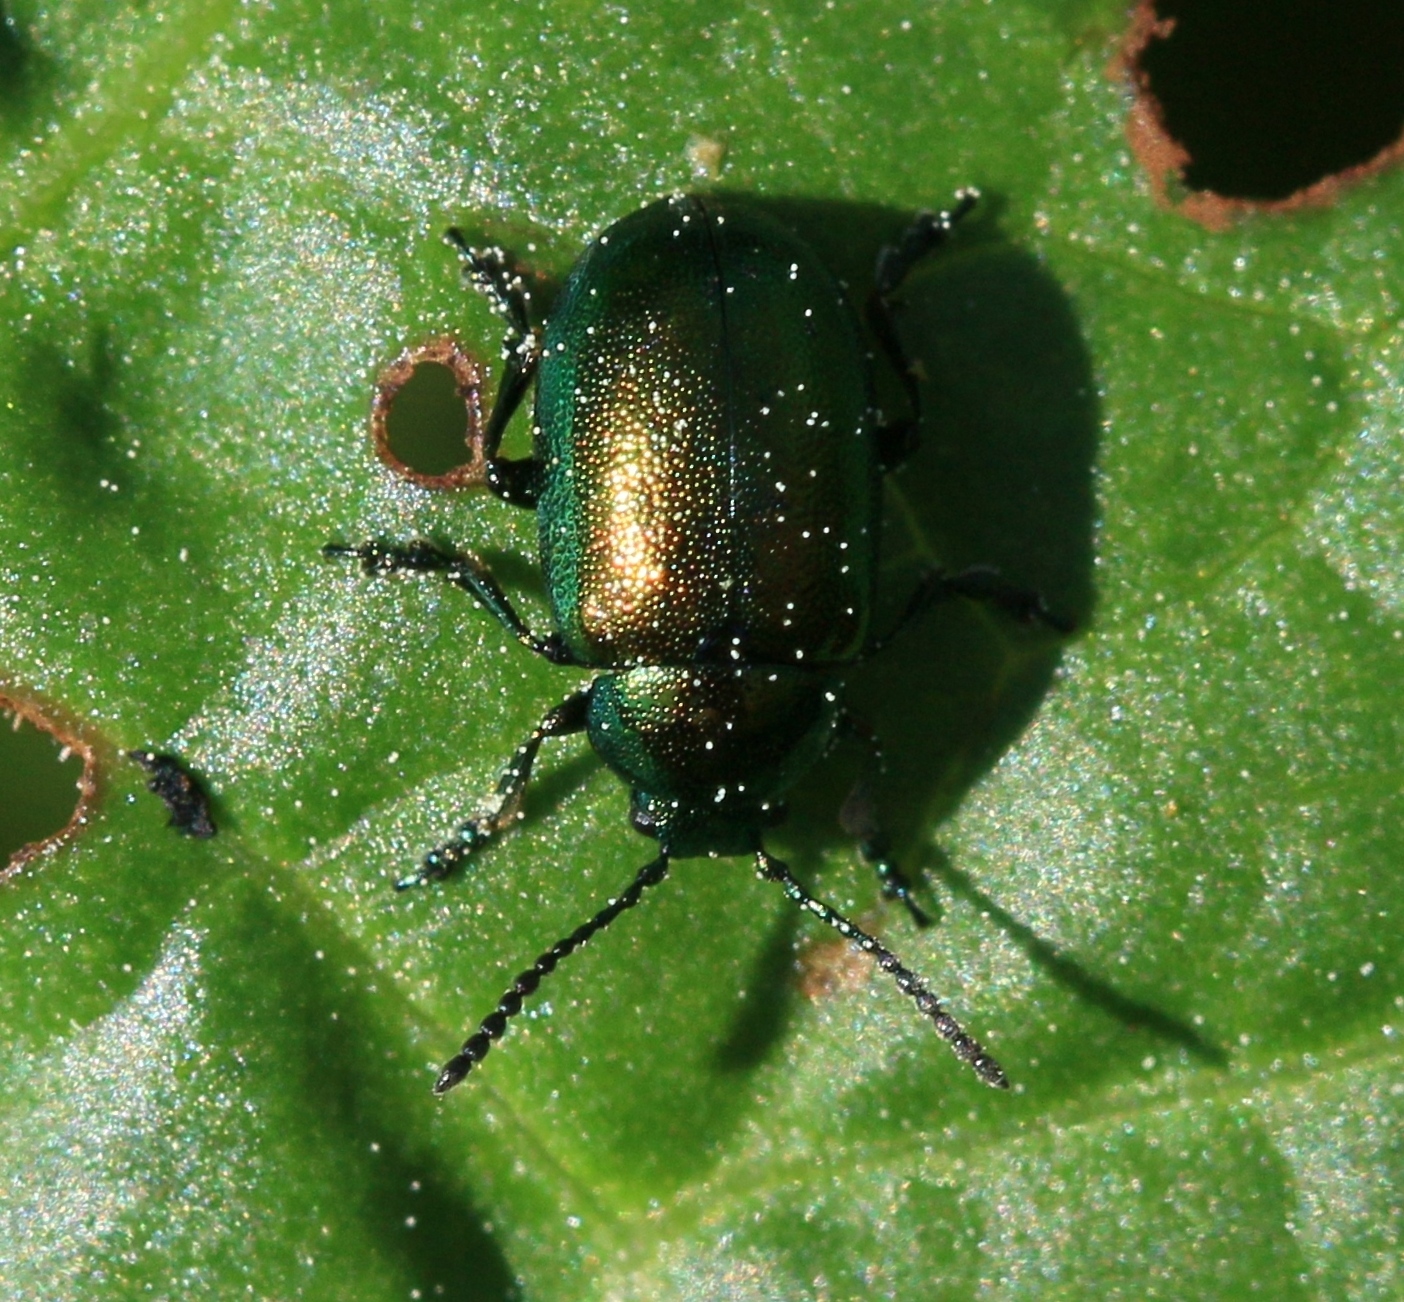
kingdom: Animalia
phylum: Arthropoda
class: Insecta
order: Coleoptera
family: Chrysomelidae
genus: Gastrophysa
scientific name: Gastrophysa viridula
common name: Green dock beetle
